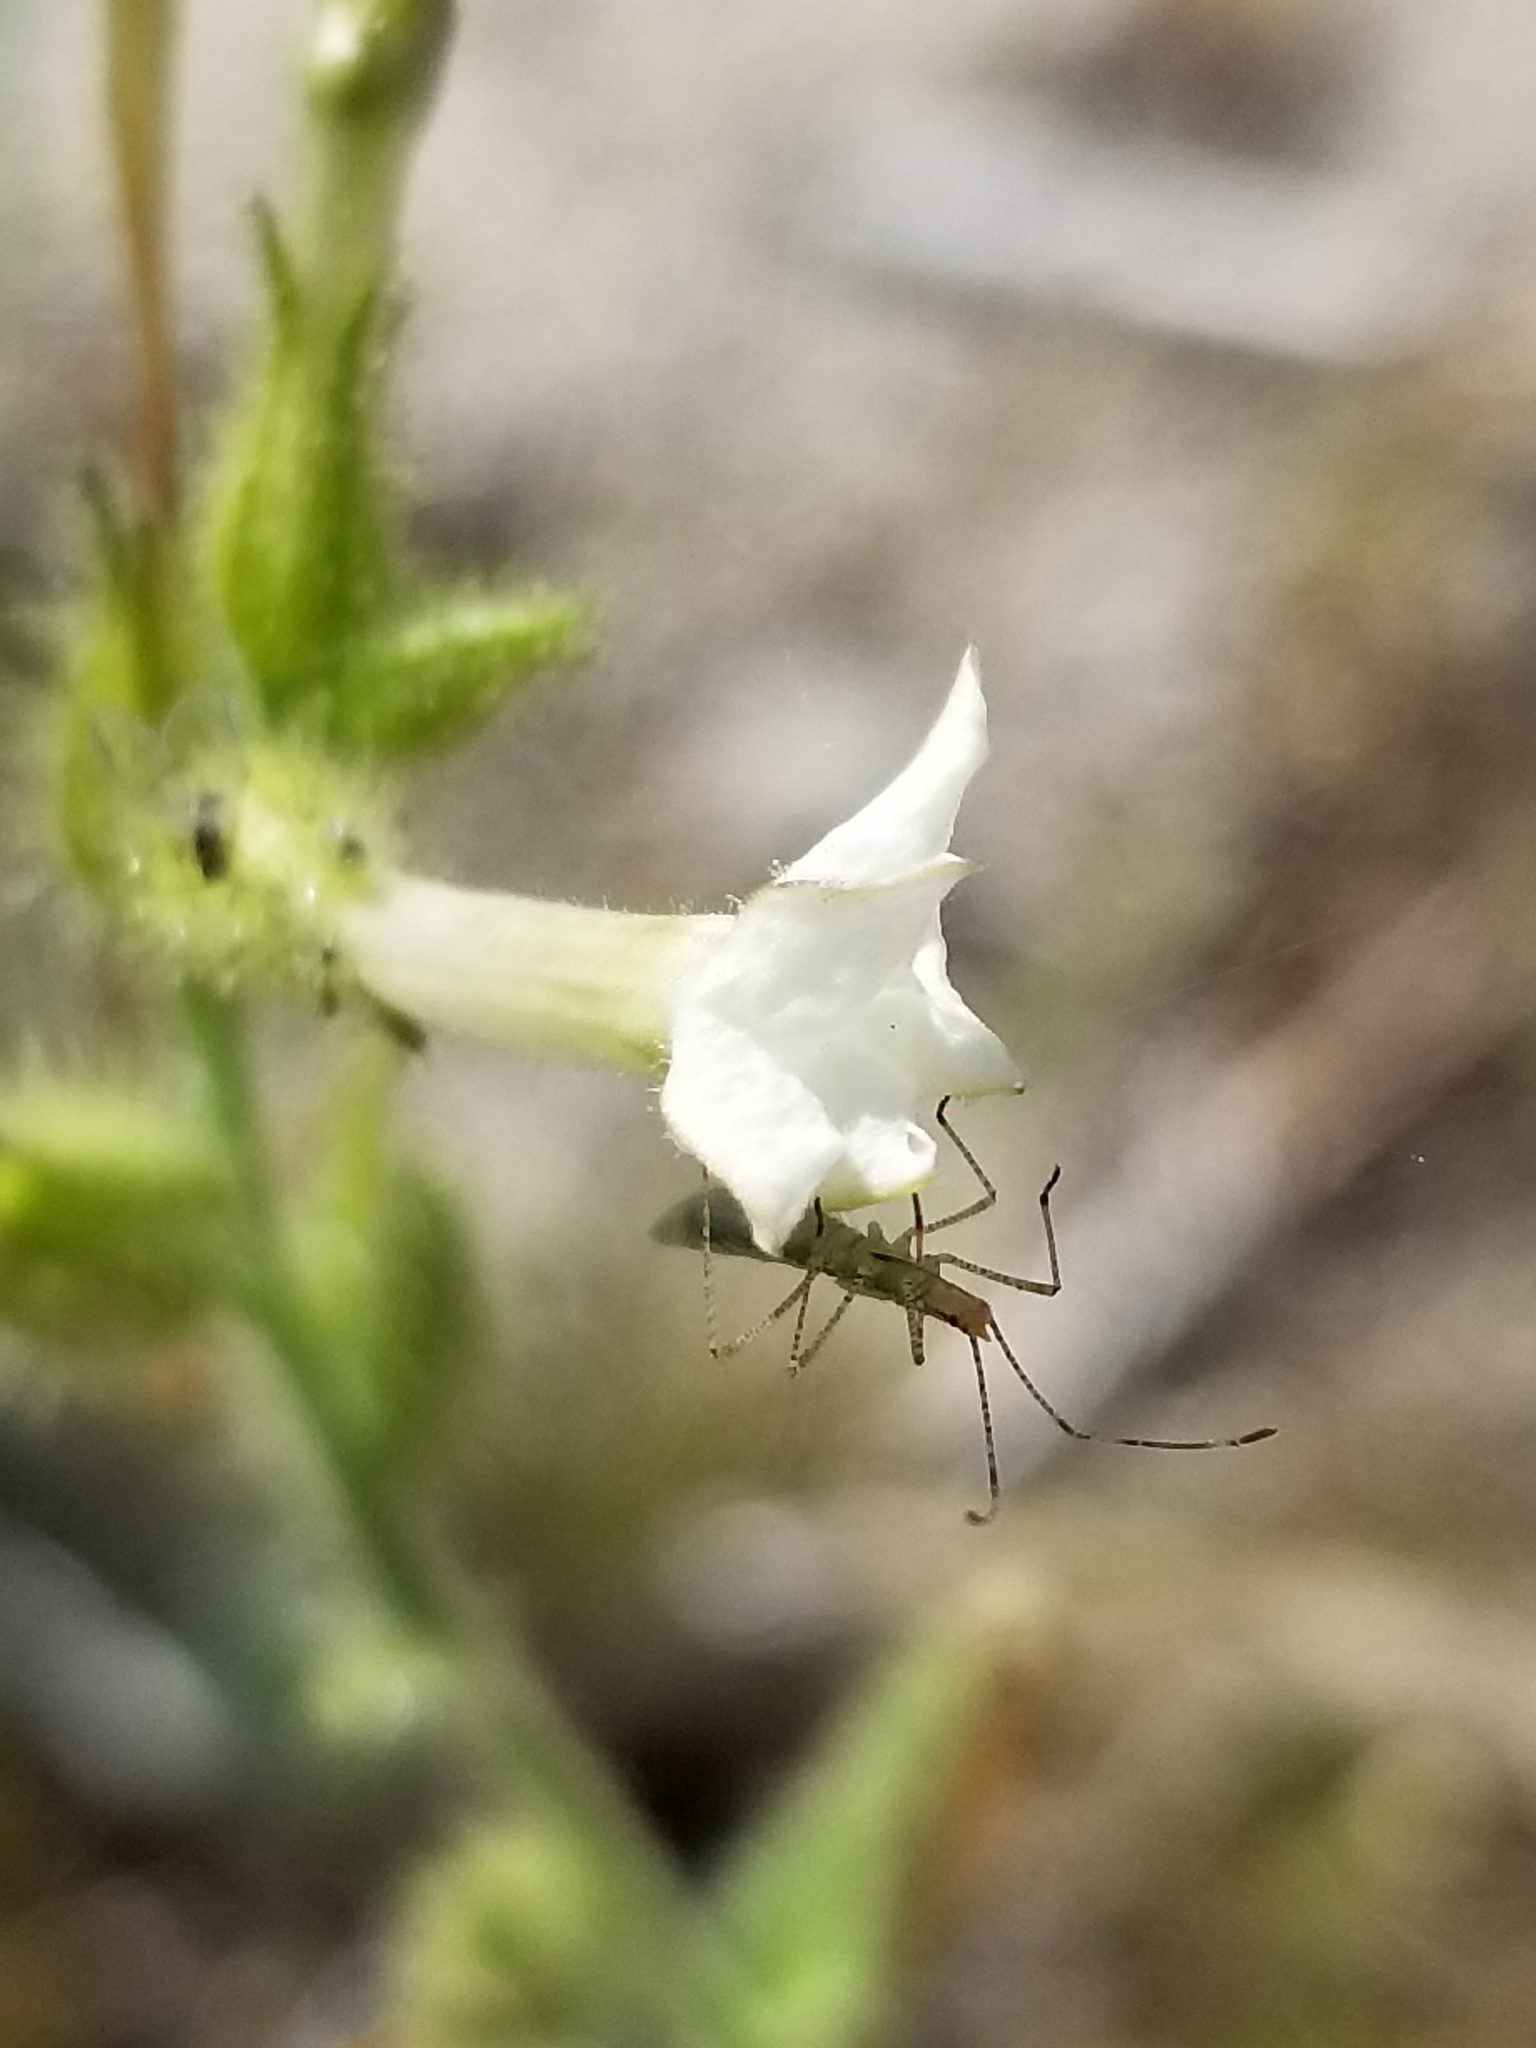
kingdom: Plantae
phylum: Tracheophyta
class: Magnoliopsida
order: Solanales
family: Solanaceae
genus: Nicotiana
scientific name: Nicotiana clevelandii
